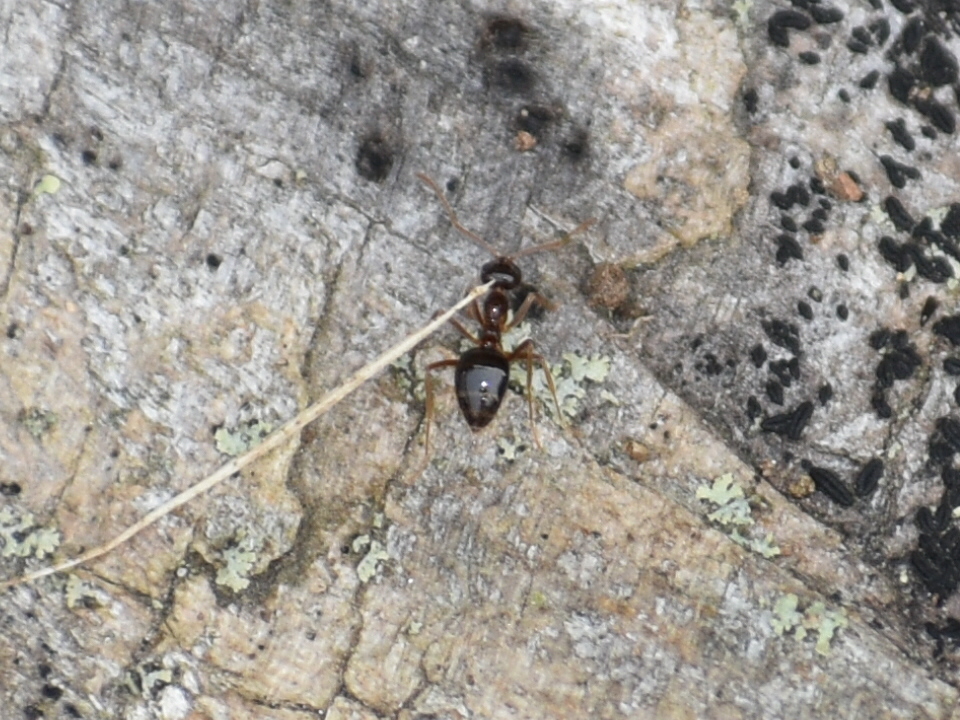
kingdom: Animalia
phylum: Arthropoda
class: Insecta
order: Hymenoptera
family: Formicidae
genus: Prenolepis
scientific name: Prenolepis imparis
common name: Small honey ant
